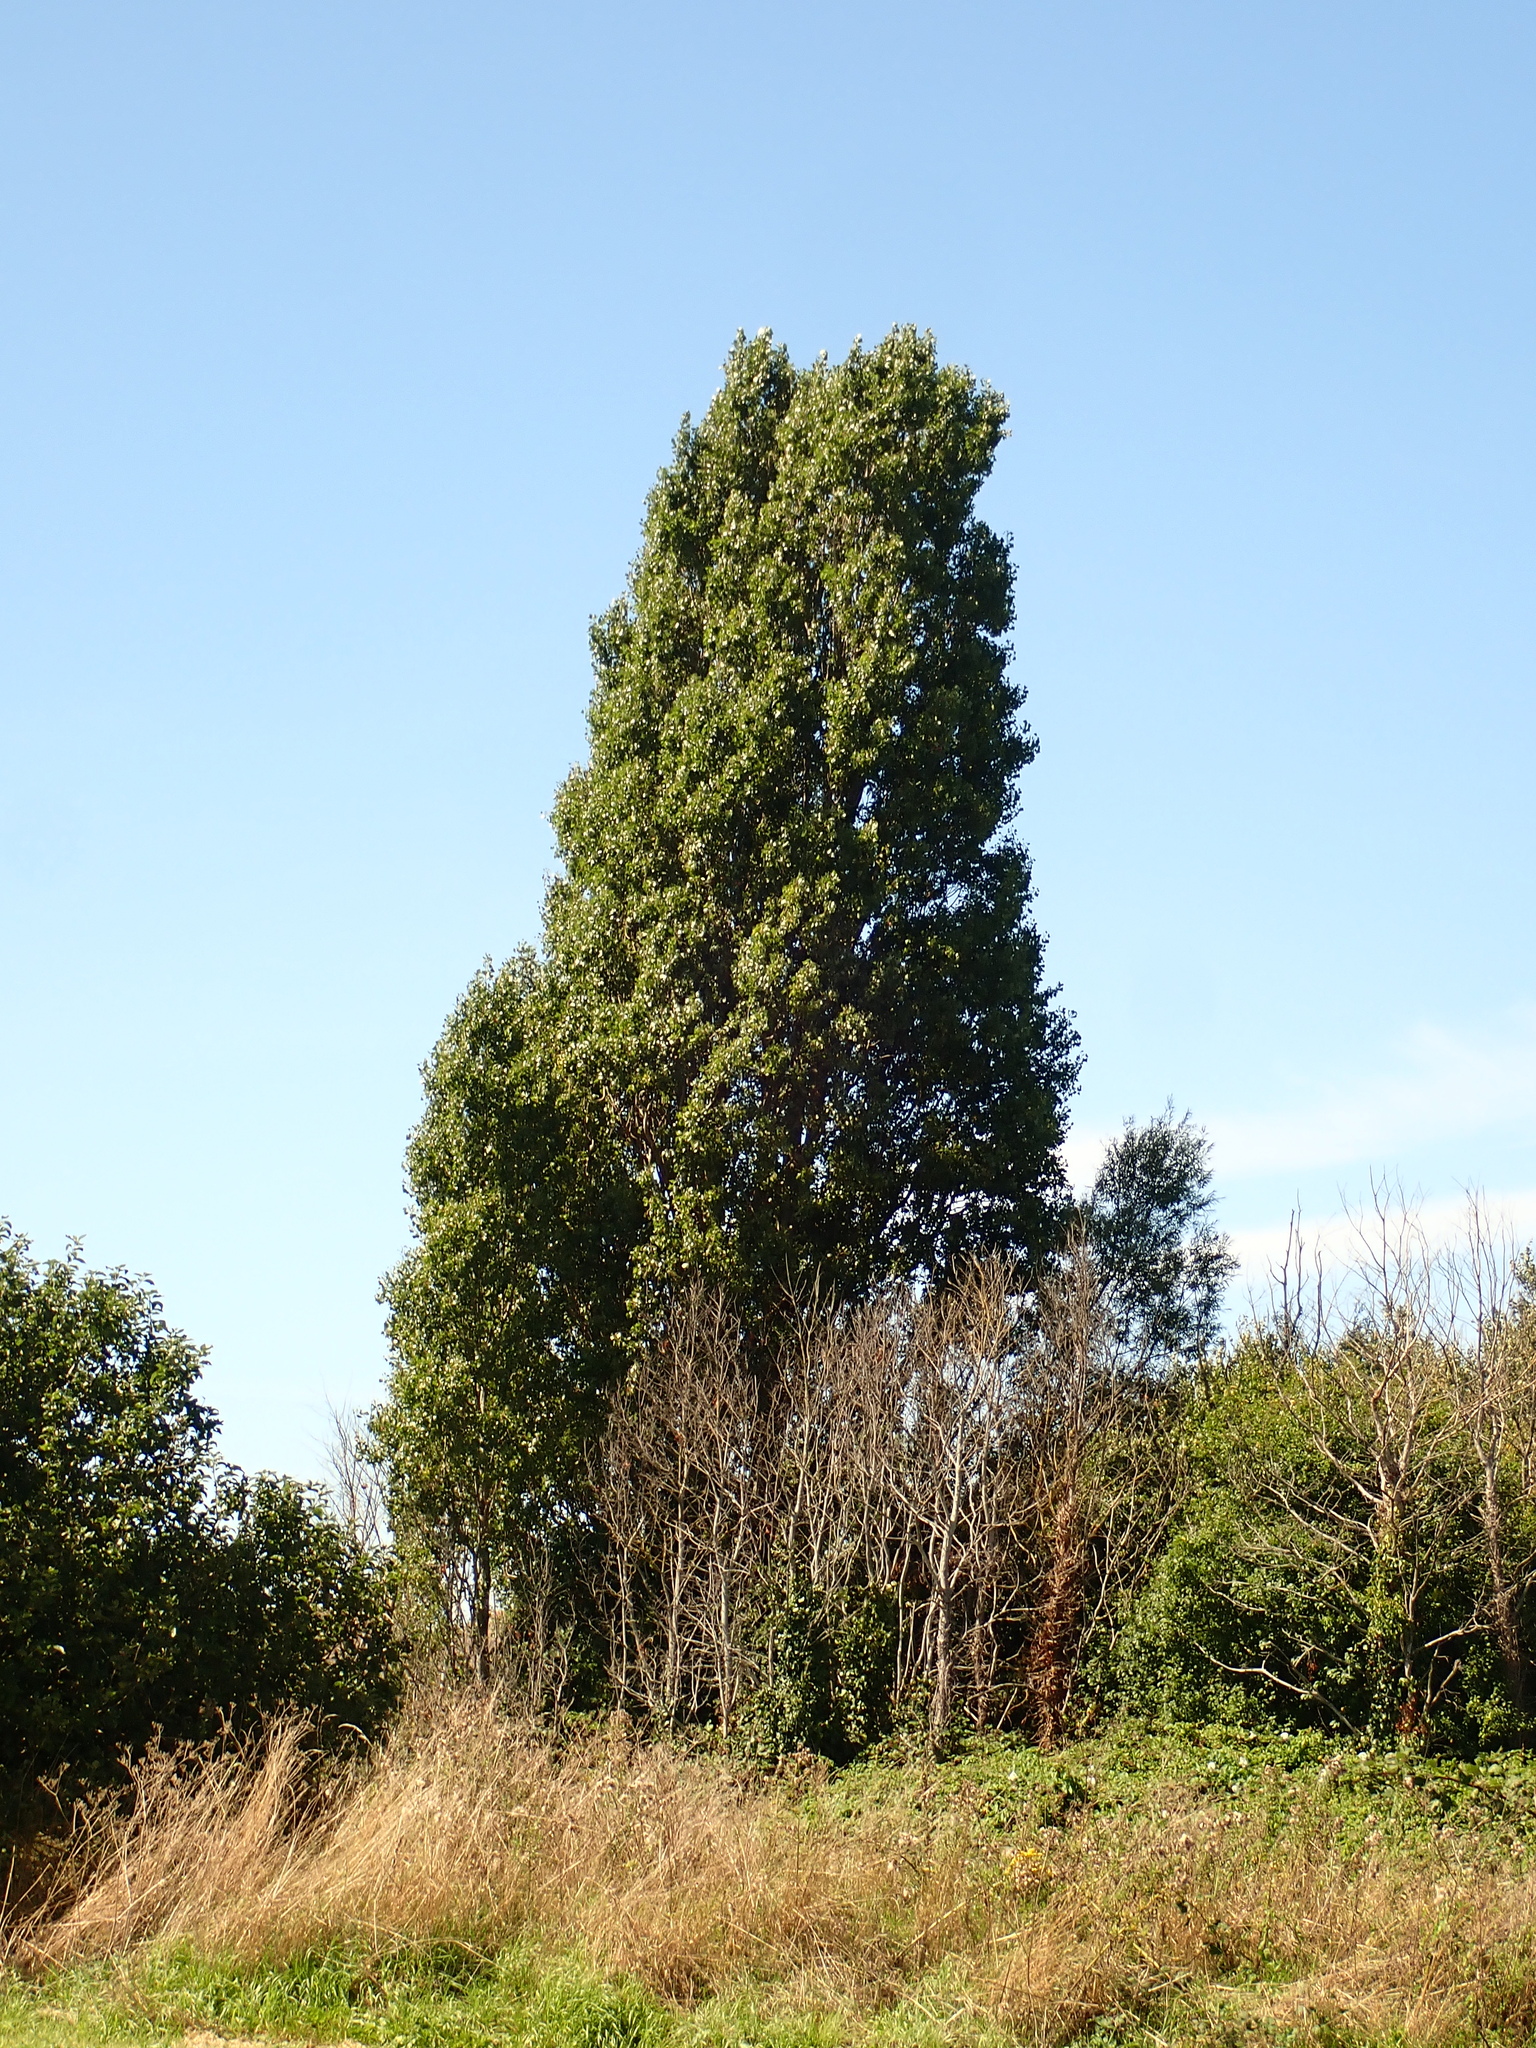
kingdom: Plantae
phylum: Tracheophyta
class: Magnoliopsida
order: Malpighiales
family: Salicaceae
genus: Populus
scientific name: Populus nigra
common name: Black poplar
